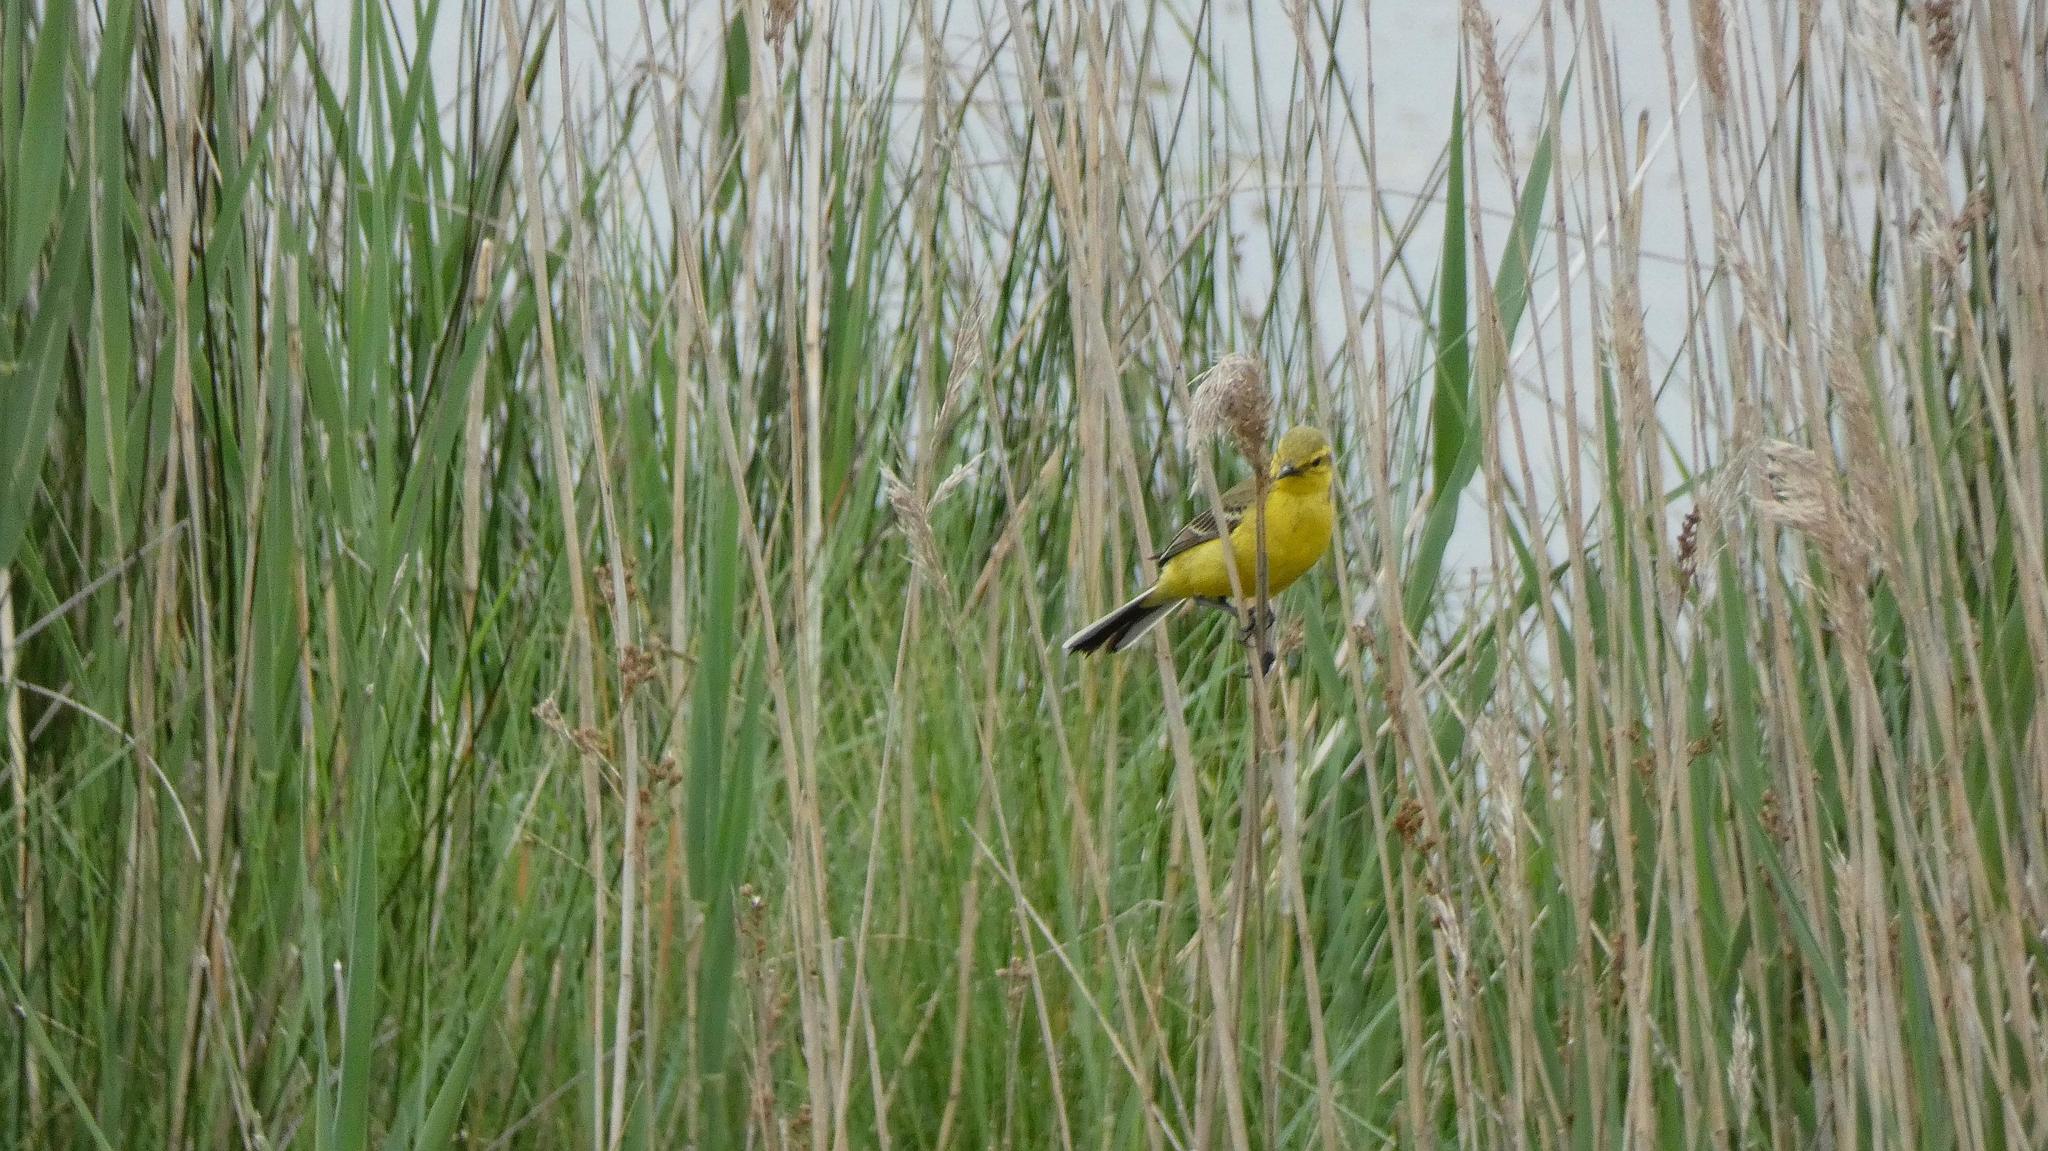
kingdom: Animalia
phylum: Chordata
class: Aves
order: Passeriformes
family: Motacillidae
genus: Motacilla
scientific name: Motacilla flava
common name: Western yellow wagtail
